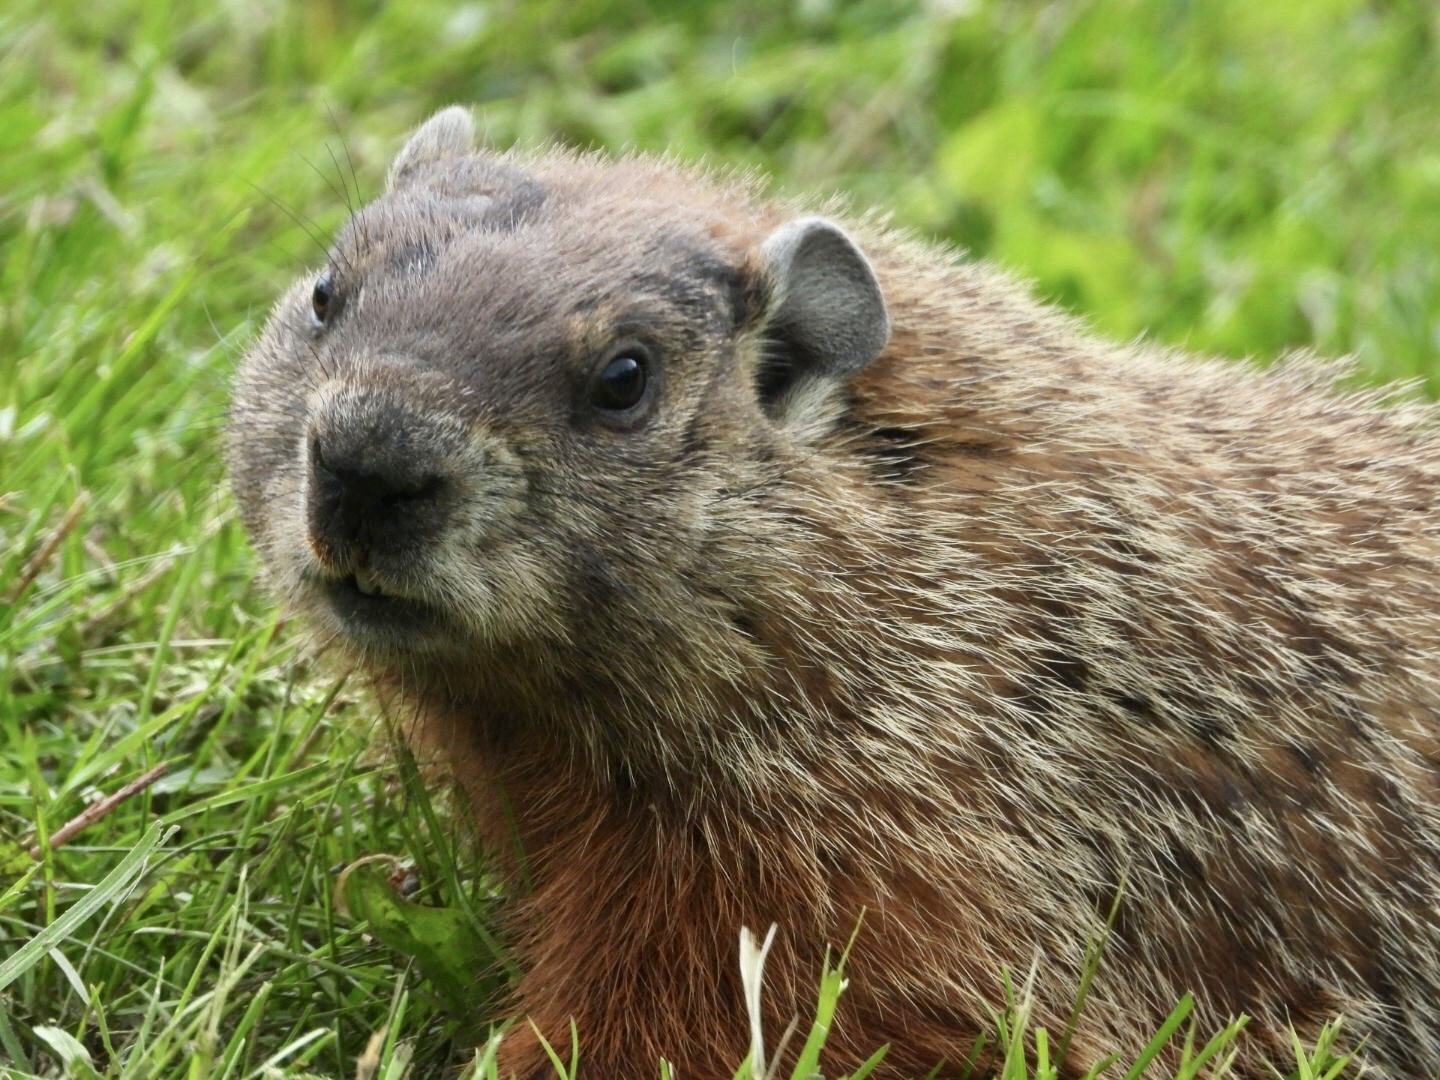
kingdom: Animalia
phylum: Chordata
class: Mammalia
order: Rodentia
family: Sciuridae
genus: Marmota
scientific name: Marmota monax
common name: Groundhog
